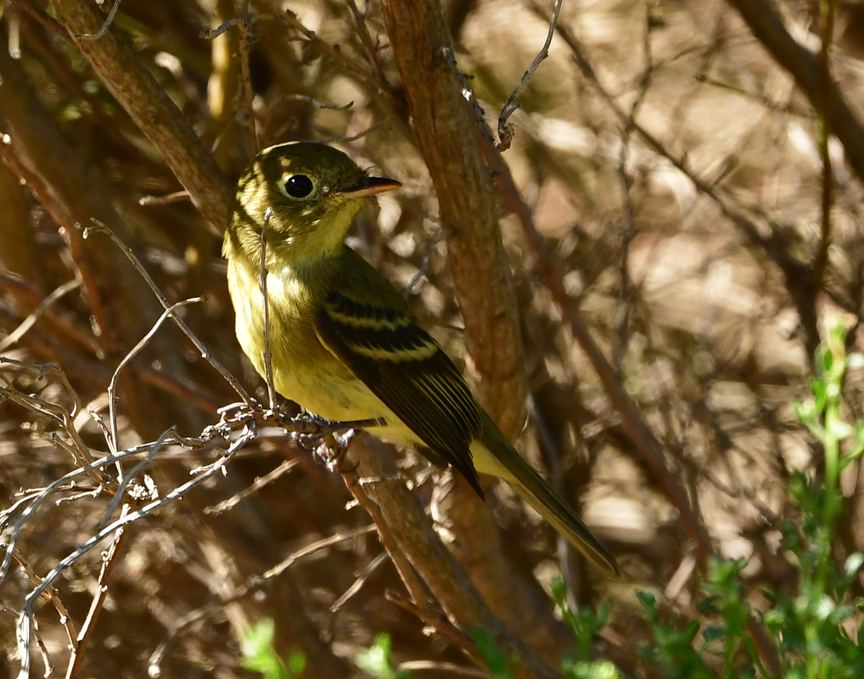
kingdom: Animalia
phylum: Chordata
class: Aves
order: Passeriformes
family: Tyrannidae
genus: Empidonax
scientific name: Empidonax difficilis
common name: Pacific-slope flycatcher
